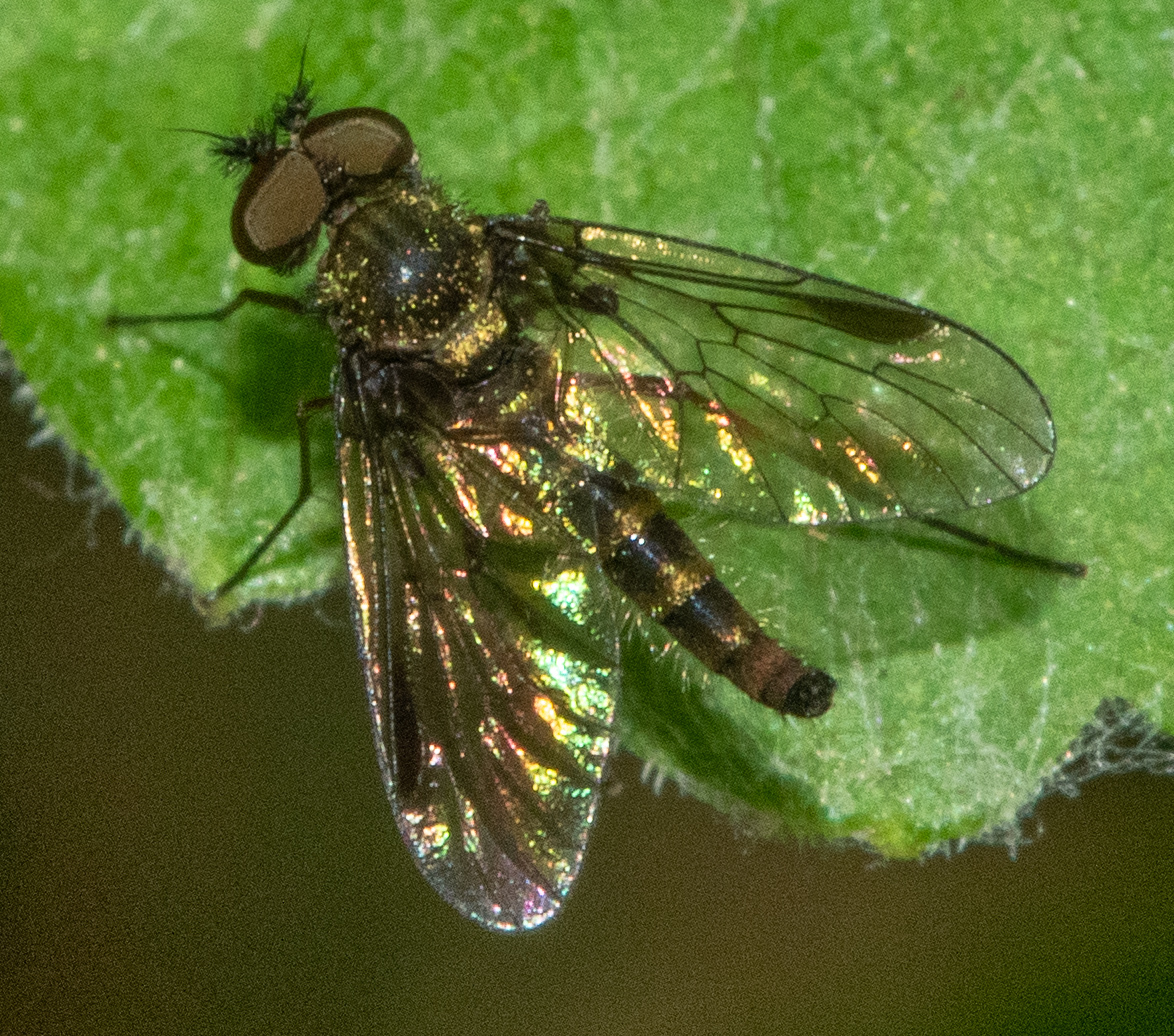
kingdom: Animalia
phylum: Arthropoda
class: Insecta
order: Diptera
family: Rhagionidae
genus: Chrysopilus
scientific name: Chrysopilus tomentosus
